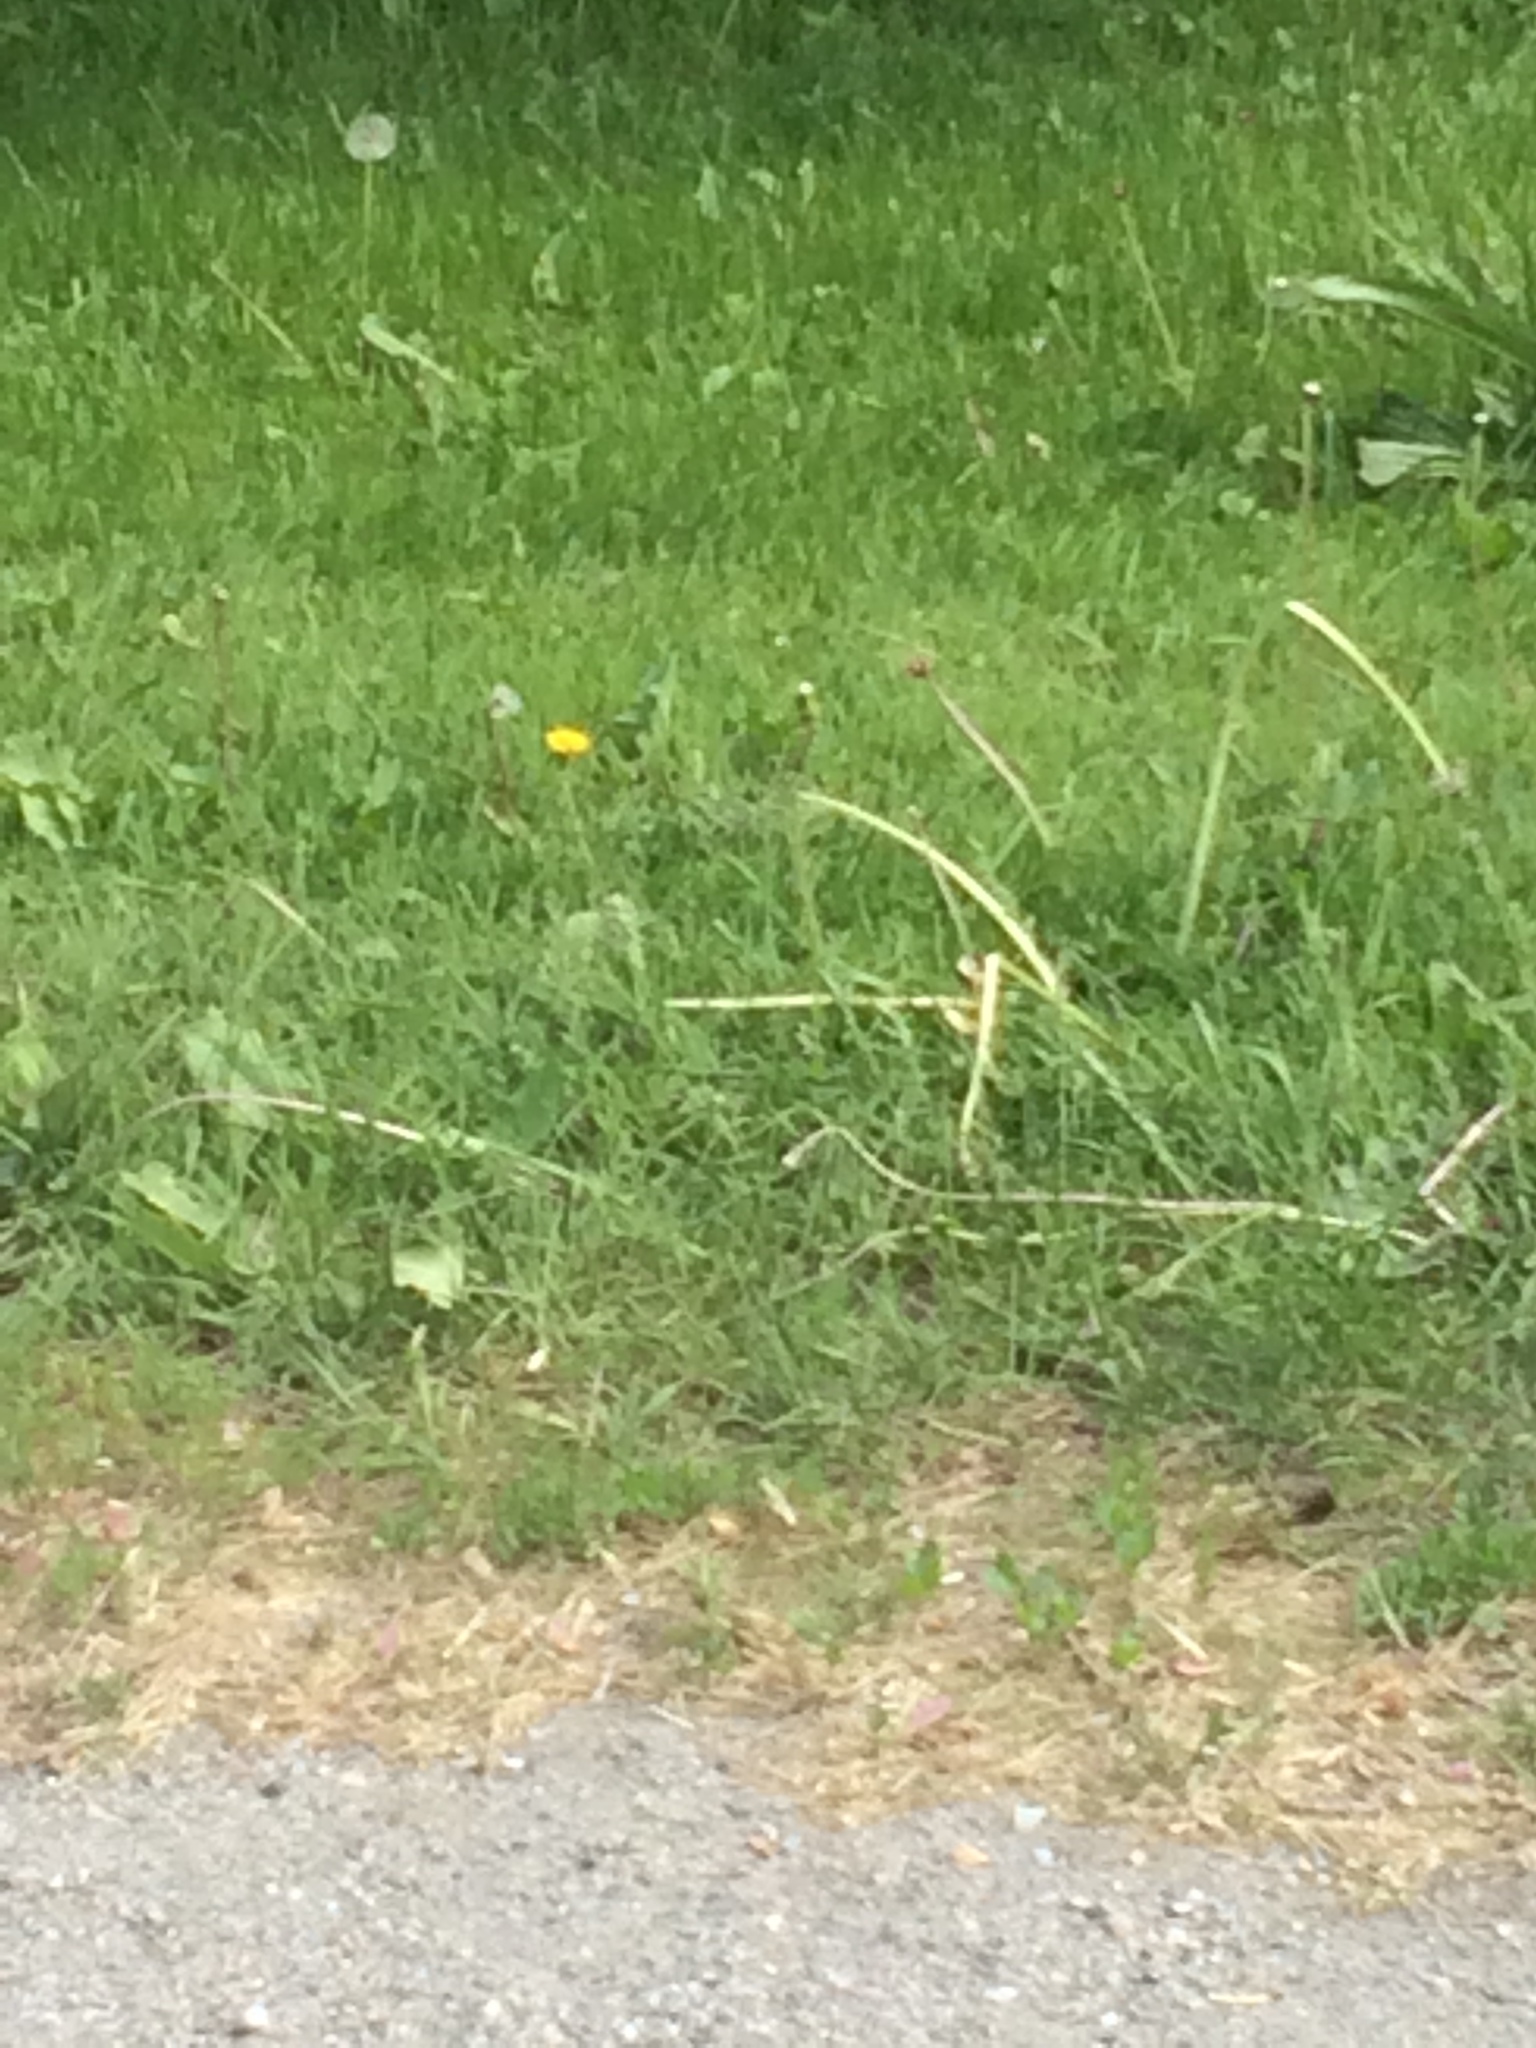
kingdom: Plantae
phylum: Tracheophyta
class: Magnoliopsida
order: Asterales
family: Asteraceae
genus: Taraxacum
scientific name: Taraxacum officinale
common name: Common dandelion
